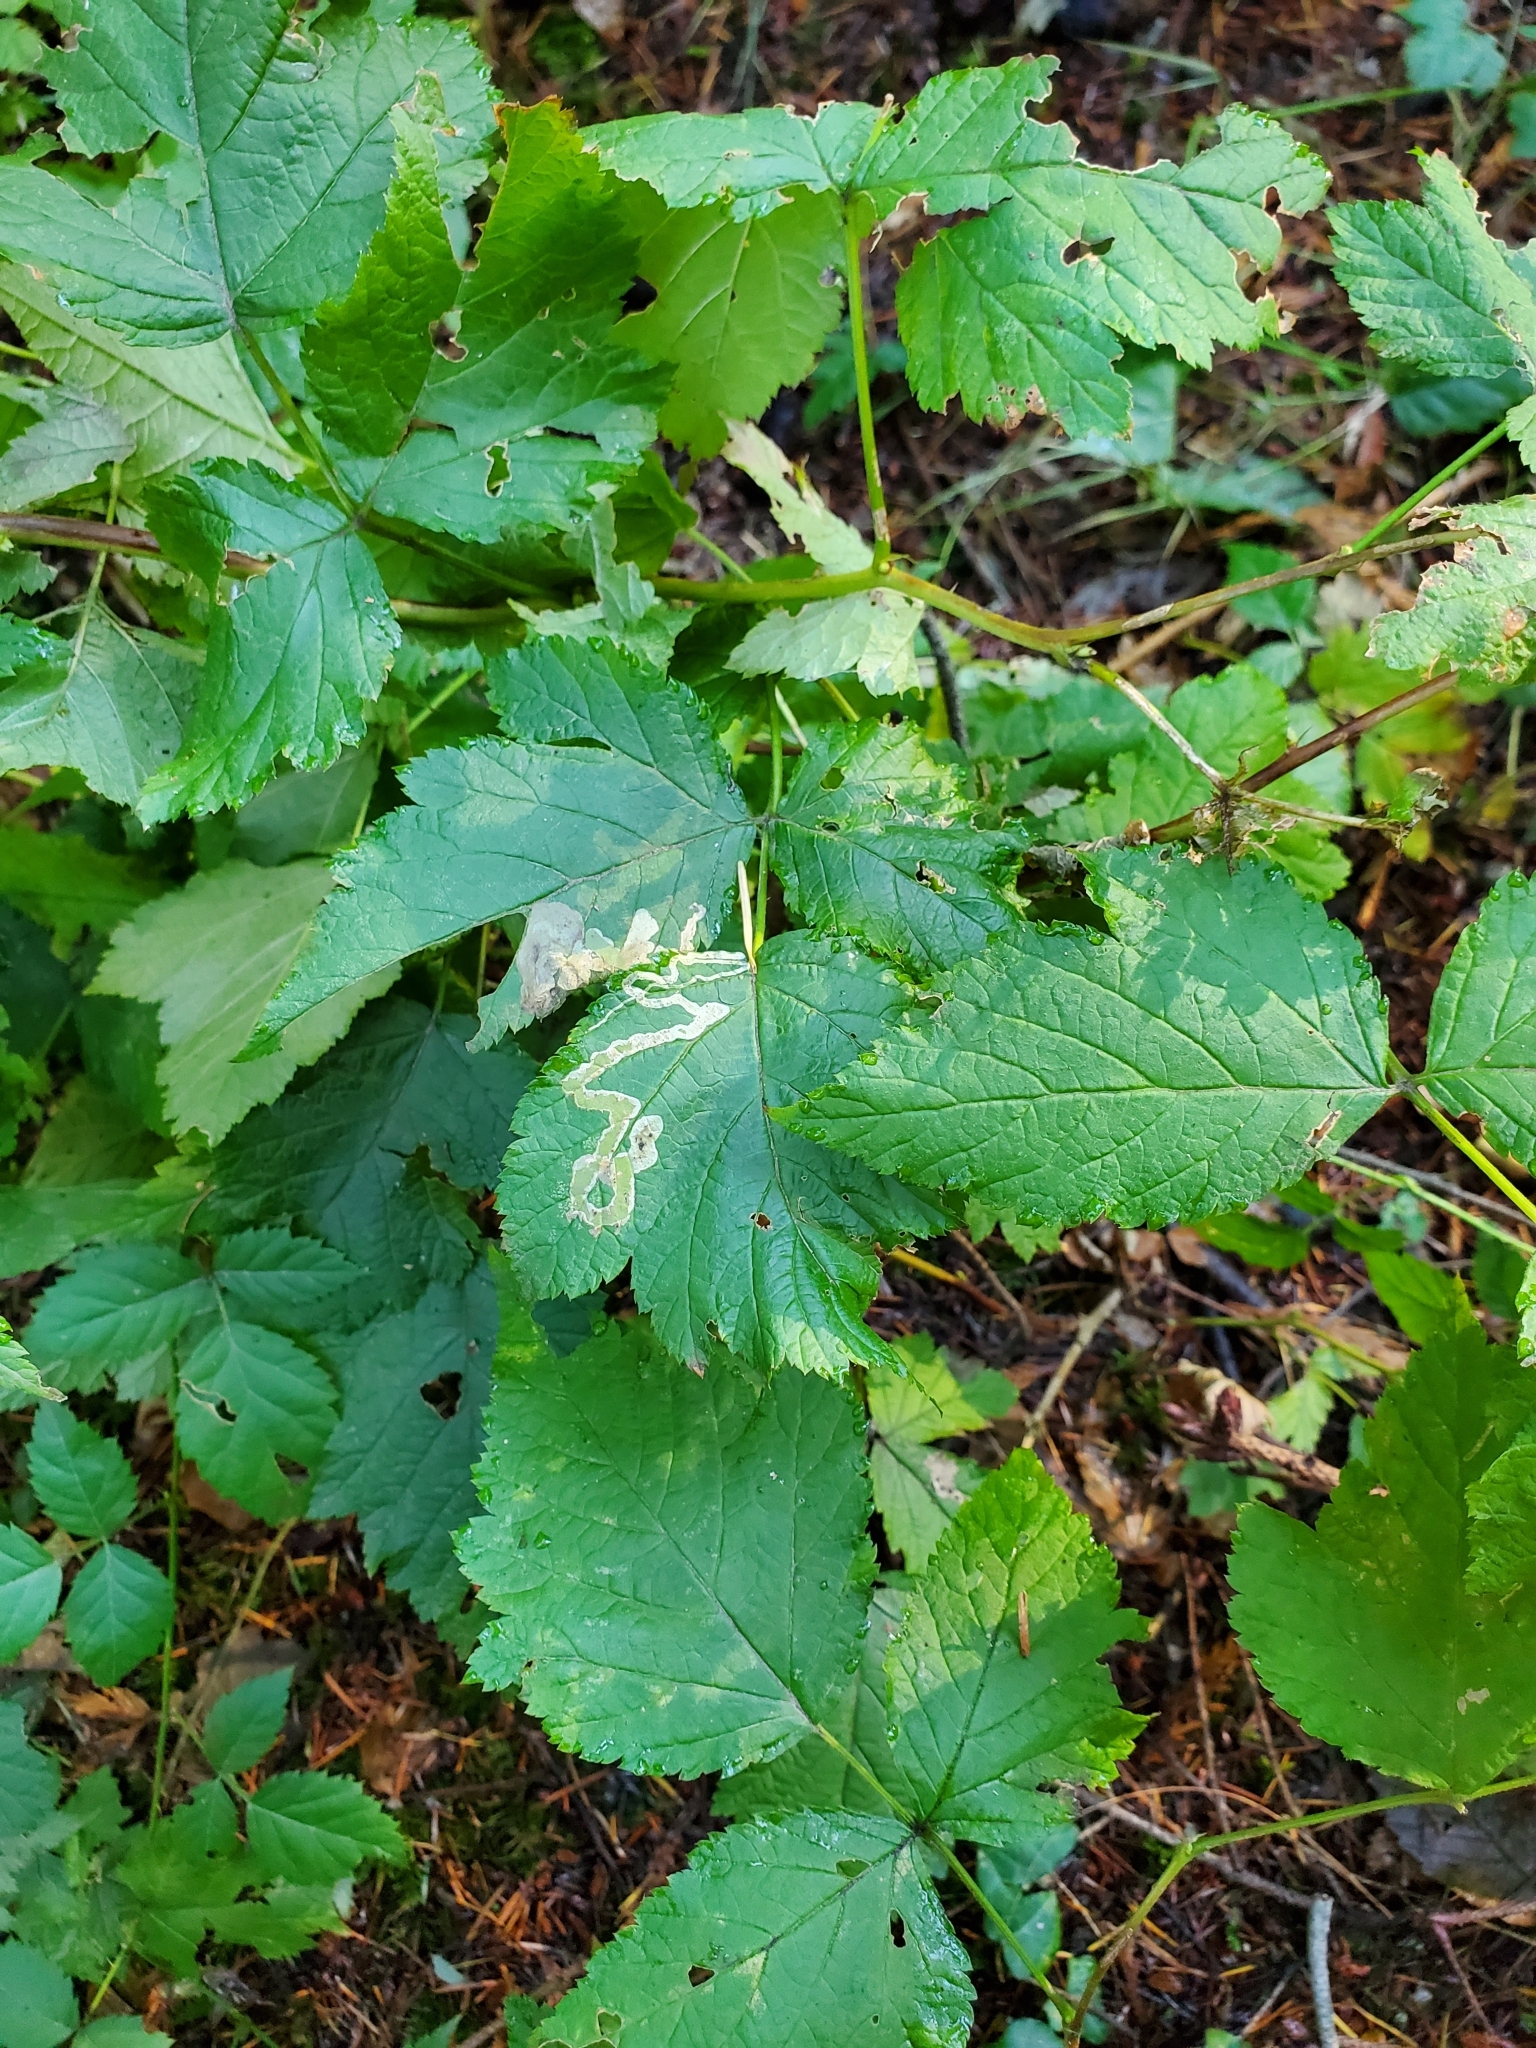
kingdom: Animalia
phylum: Arthropoda
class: Insecta
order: Diptera
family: Agromyzidae
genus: Agromyza
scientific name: Agromyza vockerothi
